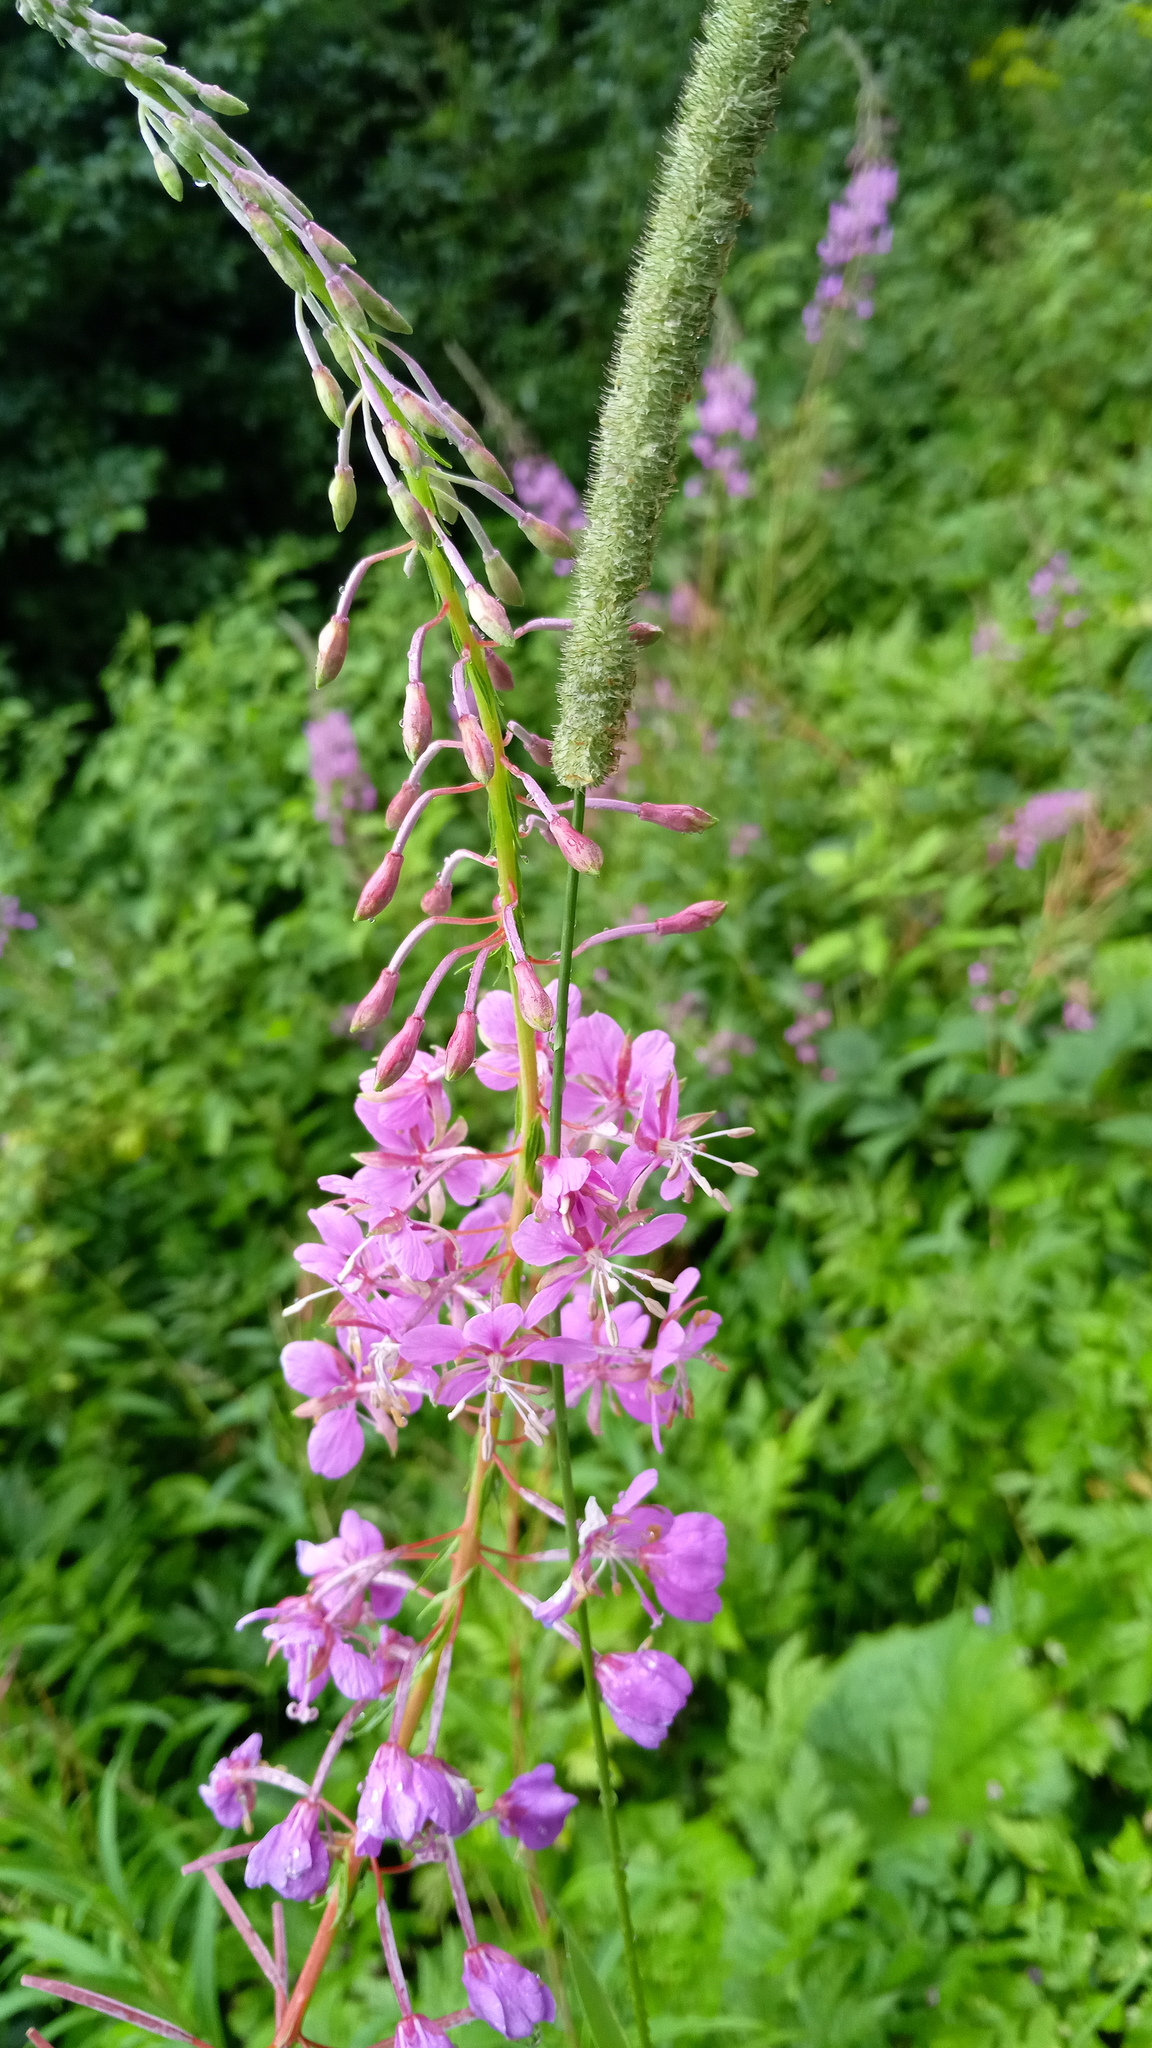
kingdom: Plantae
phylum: Tracheophyta
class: Magnoliopsida
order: Myrtales
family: Onagraceae
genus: Chamaenerion
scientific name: Chamaenerion angustifolium
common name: Fireweed
